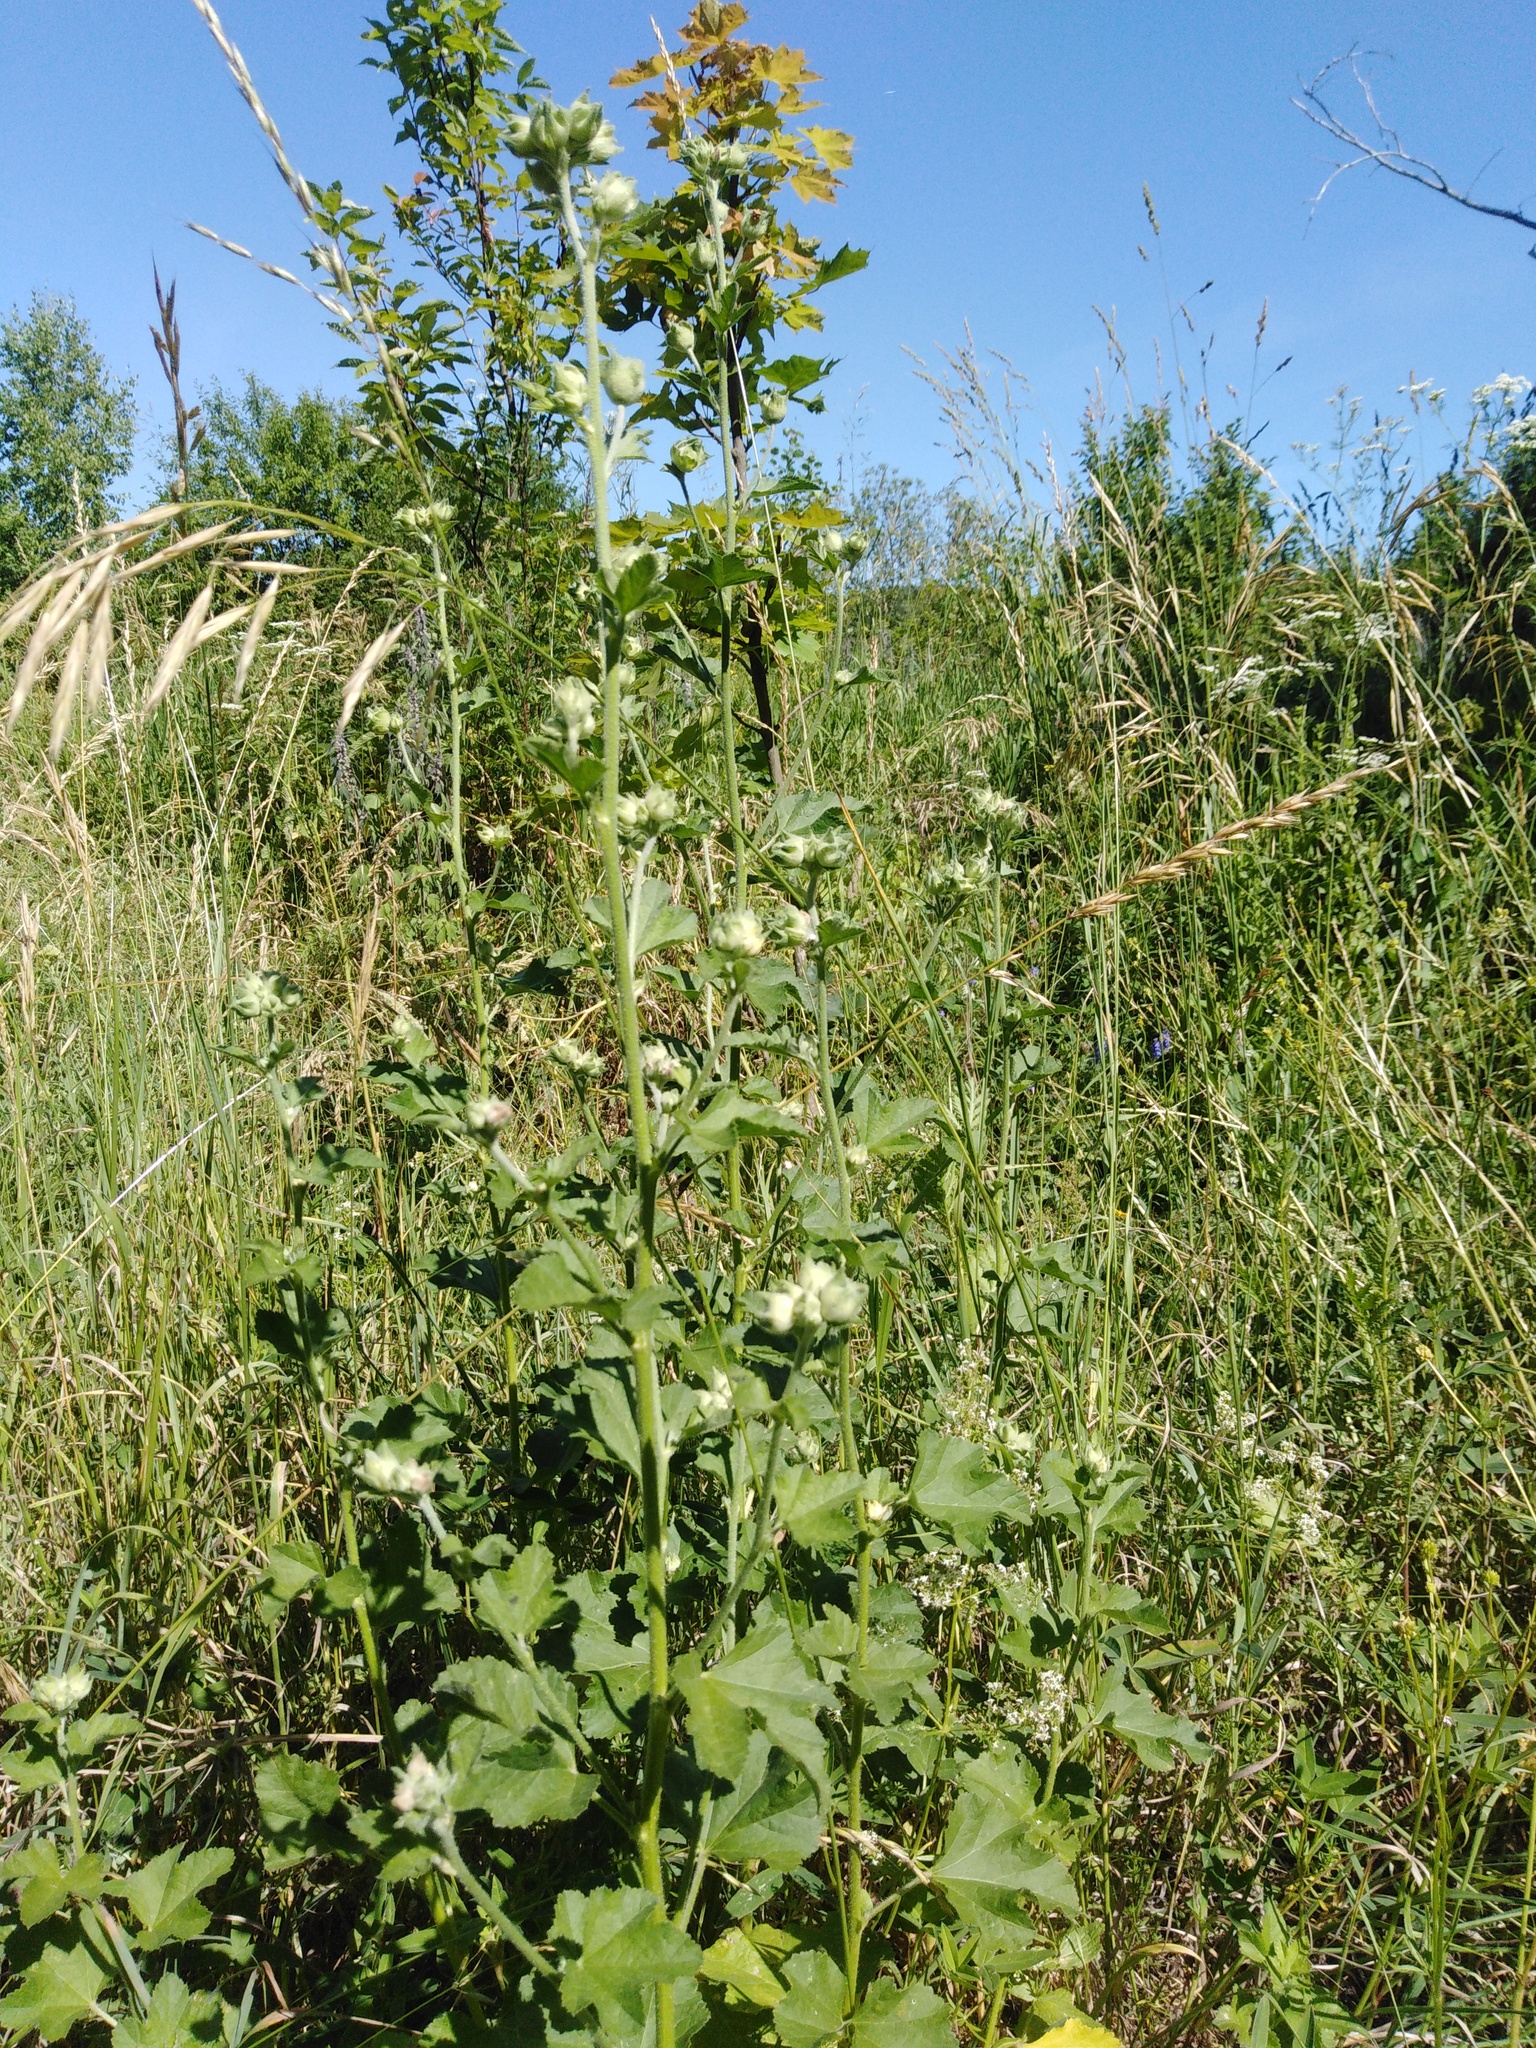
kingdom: Plantae
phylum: Tracheophyta
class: Magnoliopsida
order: Malvales
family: Malvaceae
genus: Malva
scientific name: Malva thuringiaca
